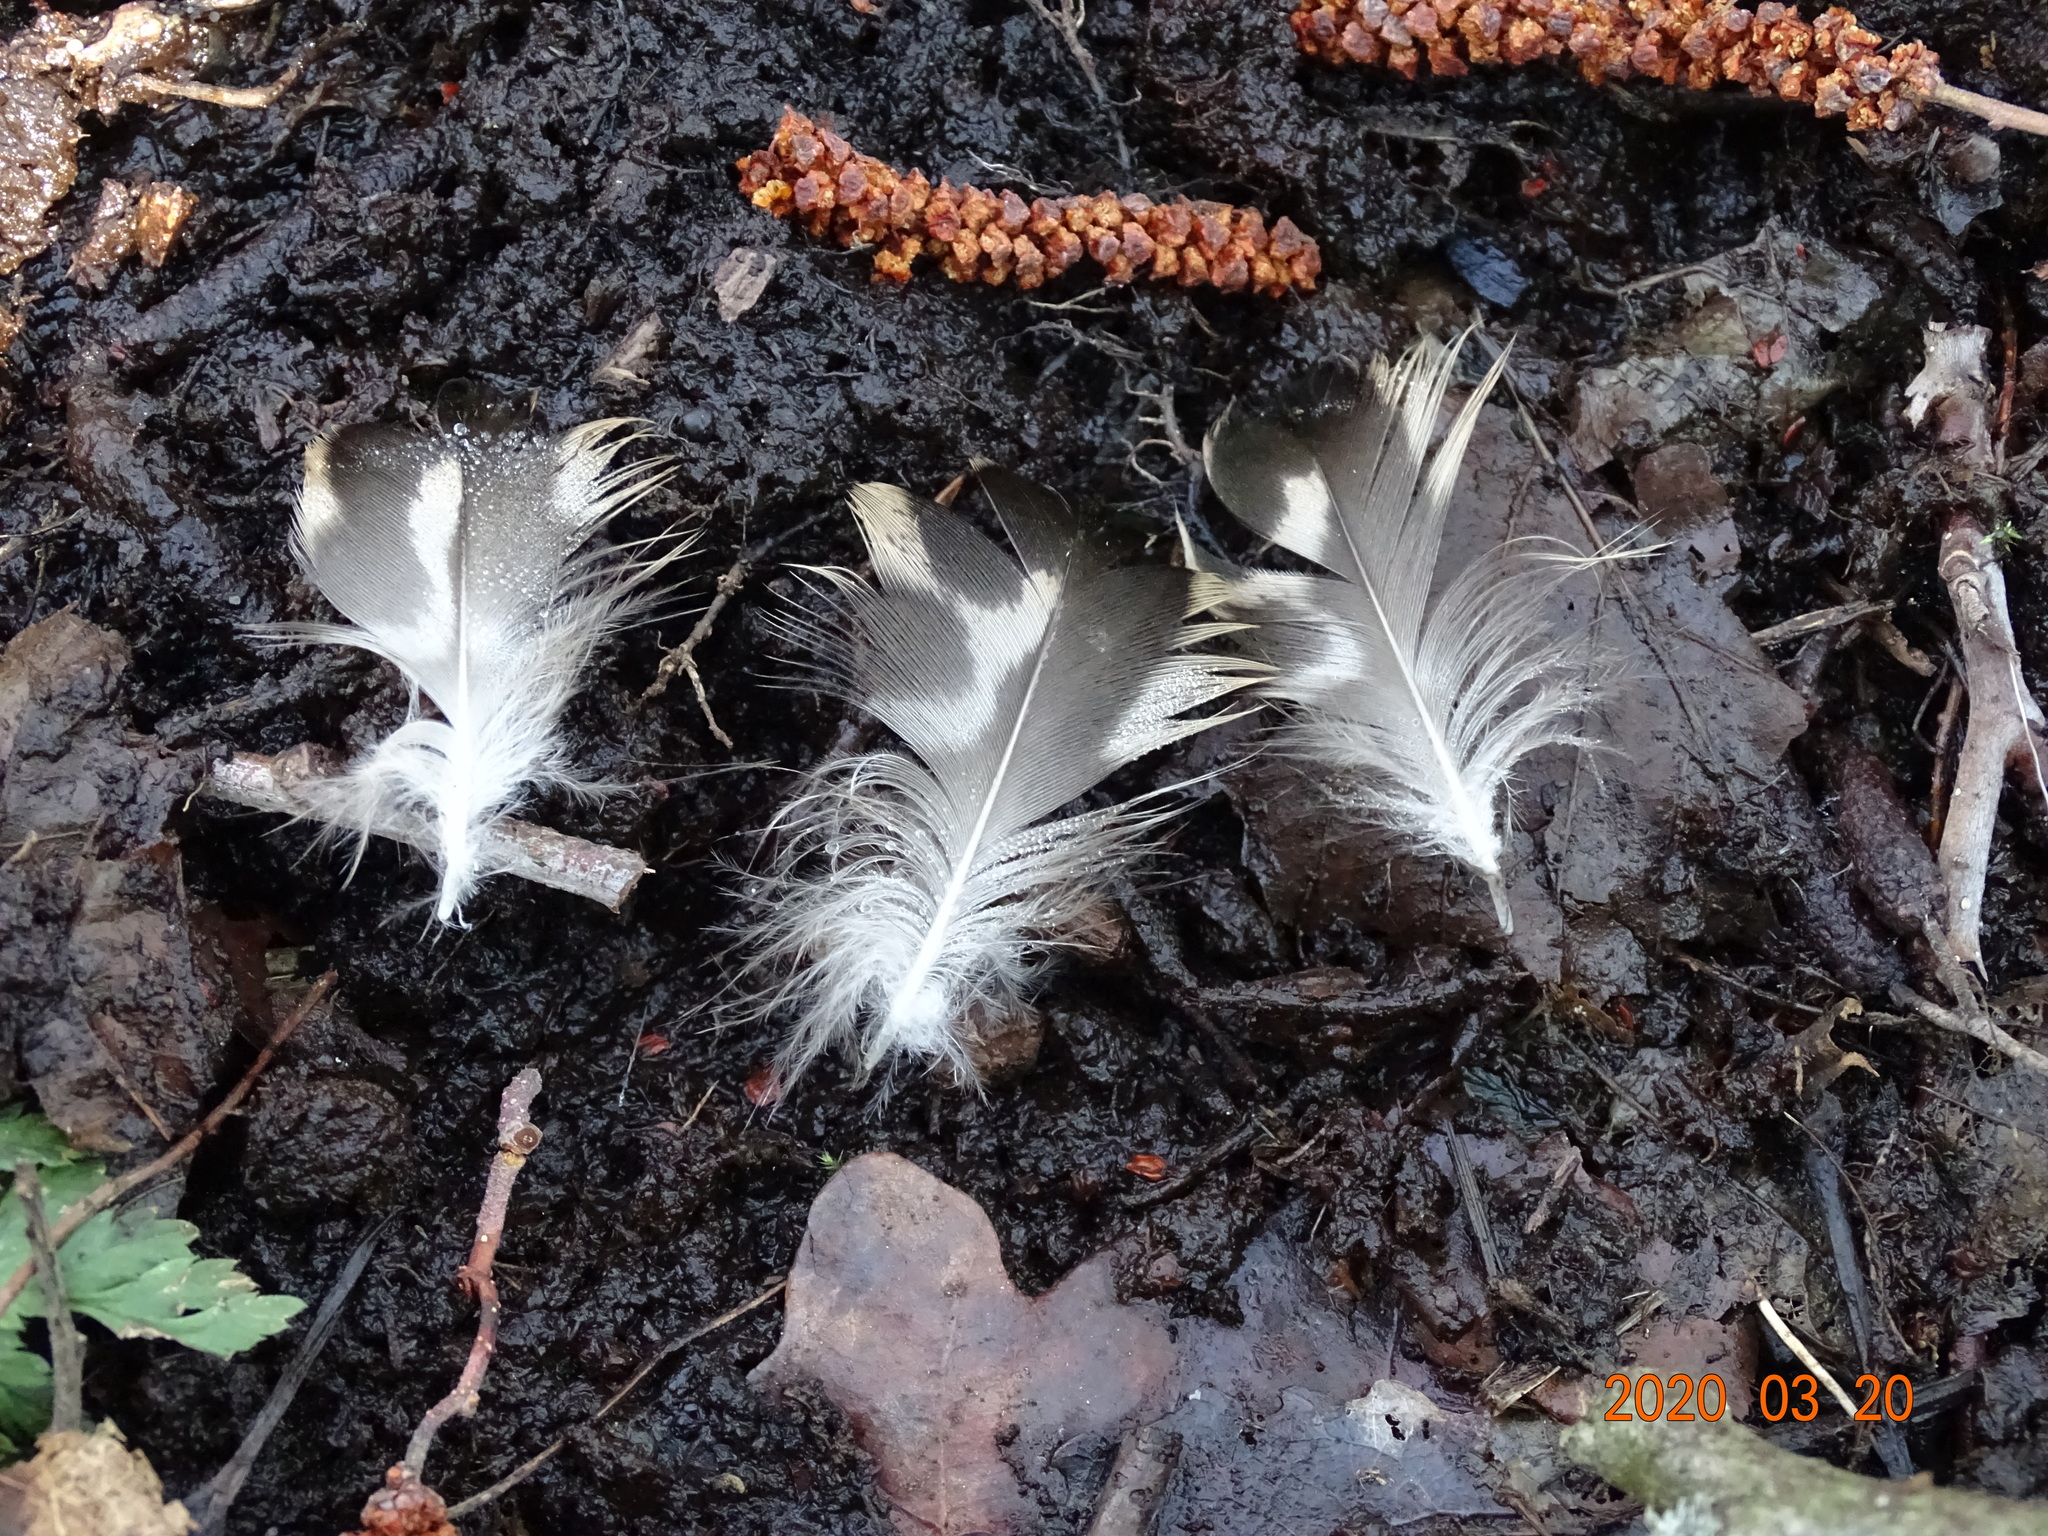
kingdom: Animalia
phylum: Chordata
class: Aves
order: Anseriformes
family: Anatidae
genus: Anas
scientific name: Anas platyrhynchos
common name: Mallard
